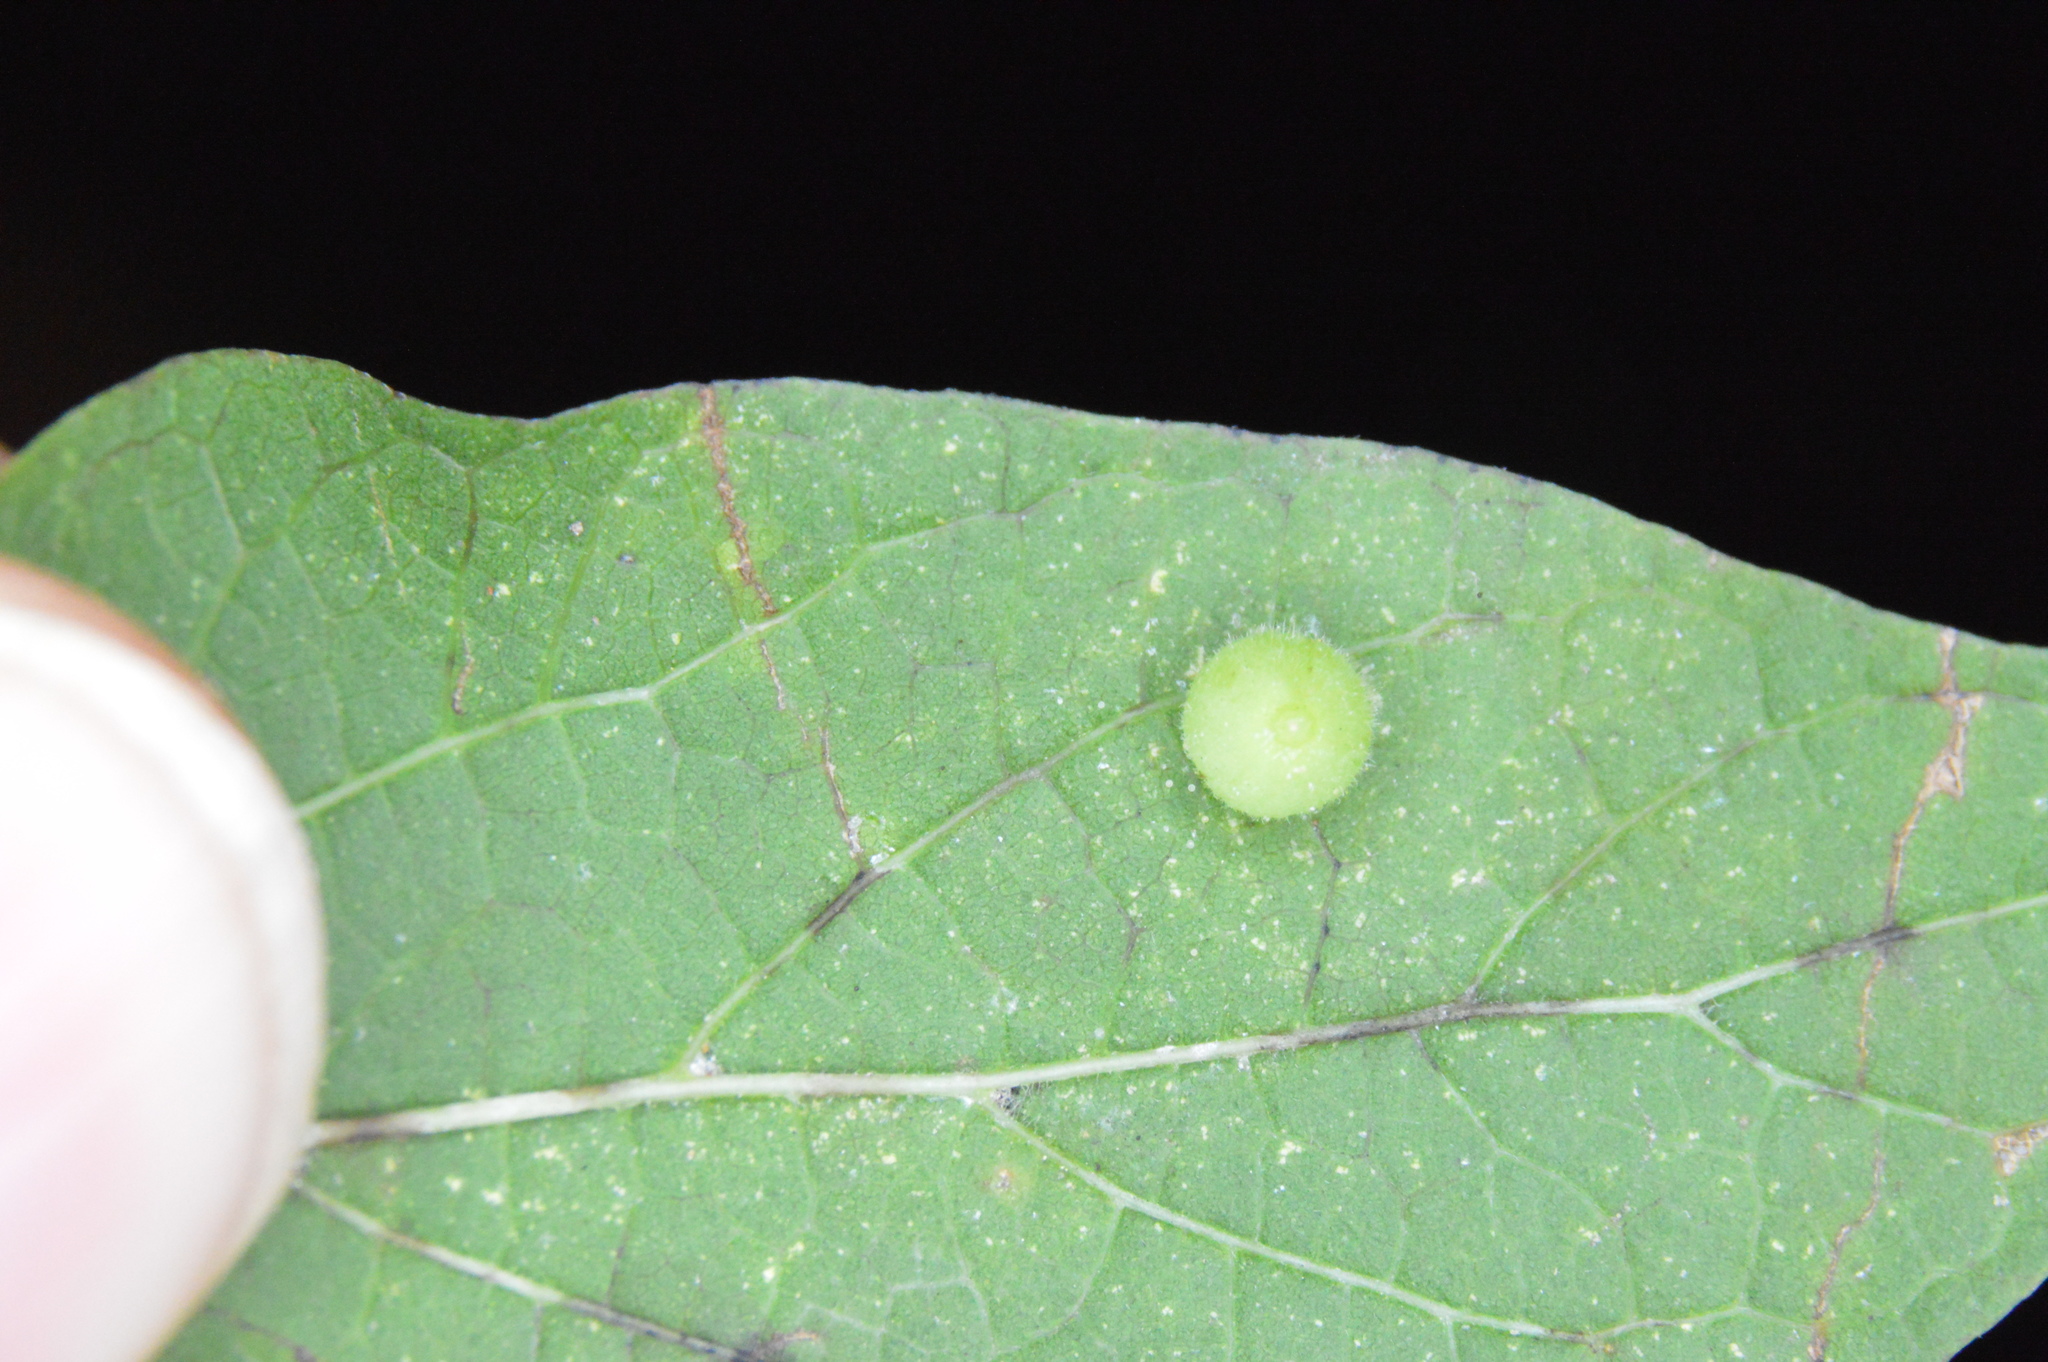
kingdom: Animalia
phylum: Arthropoda
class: Insecta
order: Diptera
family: Cecidomyiidae
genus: Celticecis
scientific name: Celticecis globosa
